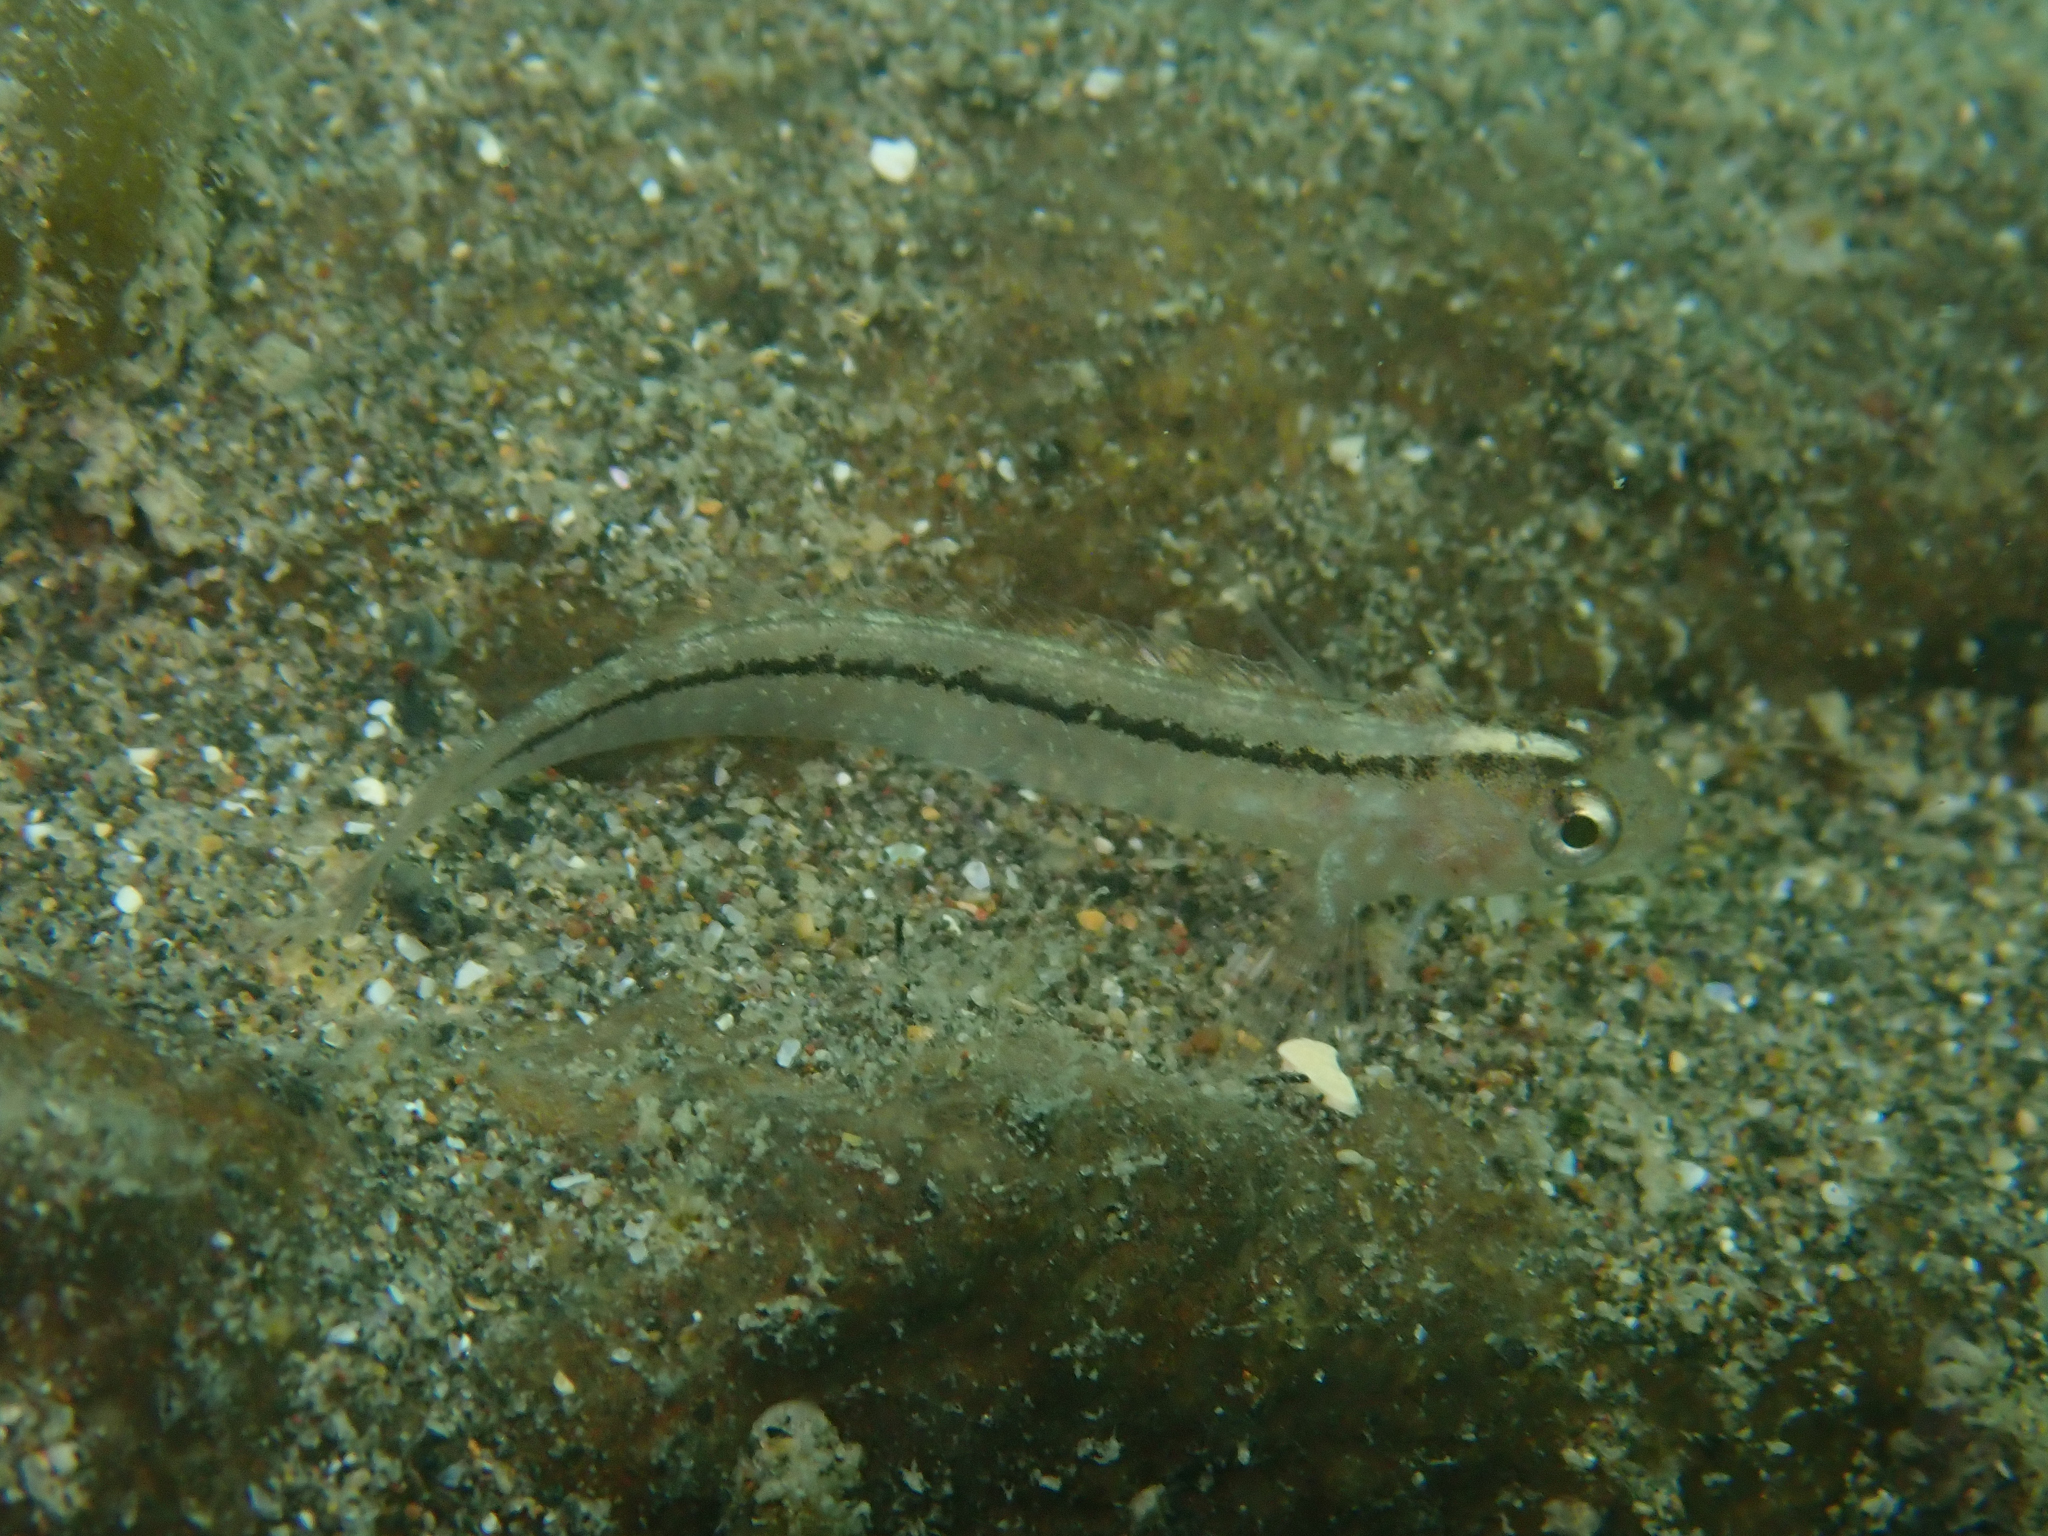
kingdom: Animalia
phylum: Chordata
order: Perciformes
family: Tripterygiidae
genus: Forsterygion
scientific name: Forsterygion lapillum
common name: Common triplefin
